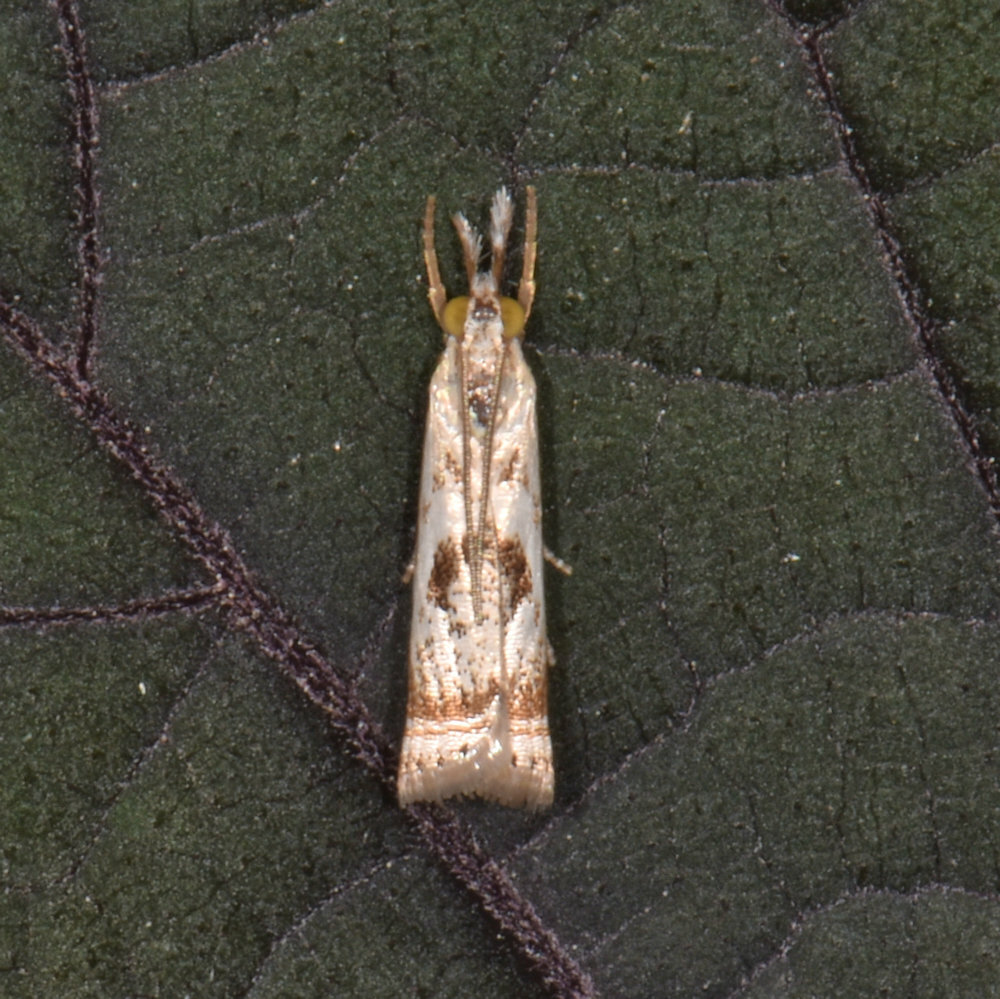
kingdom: Animalia
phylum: Arthropoda
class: Insecta
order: Lepidoptera
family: Crambidae
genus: Microcrambus
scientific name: Microcrambus elegans
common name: Elegant grass-veneer
